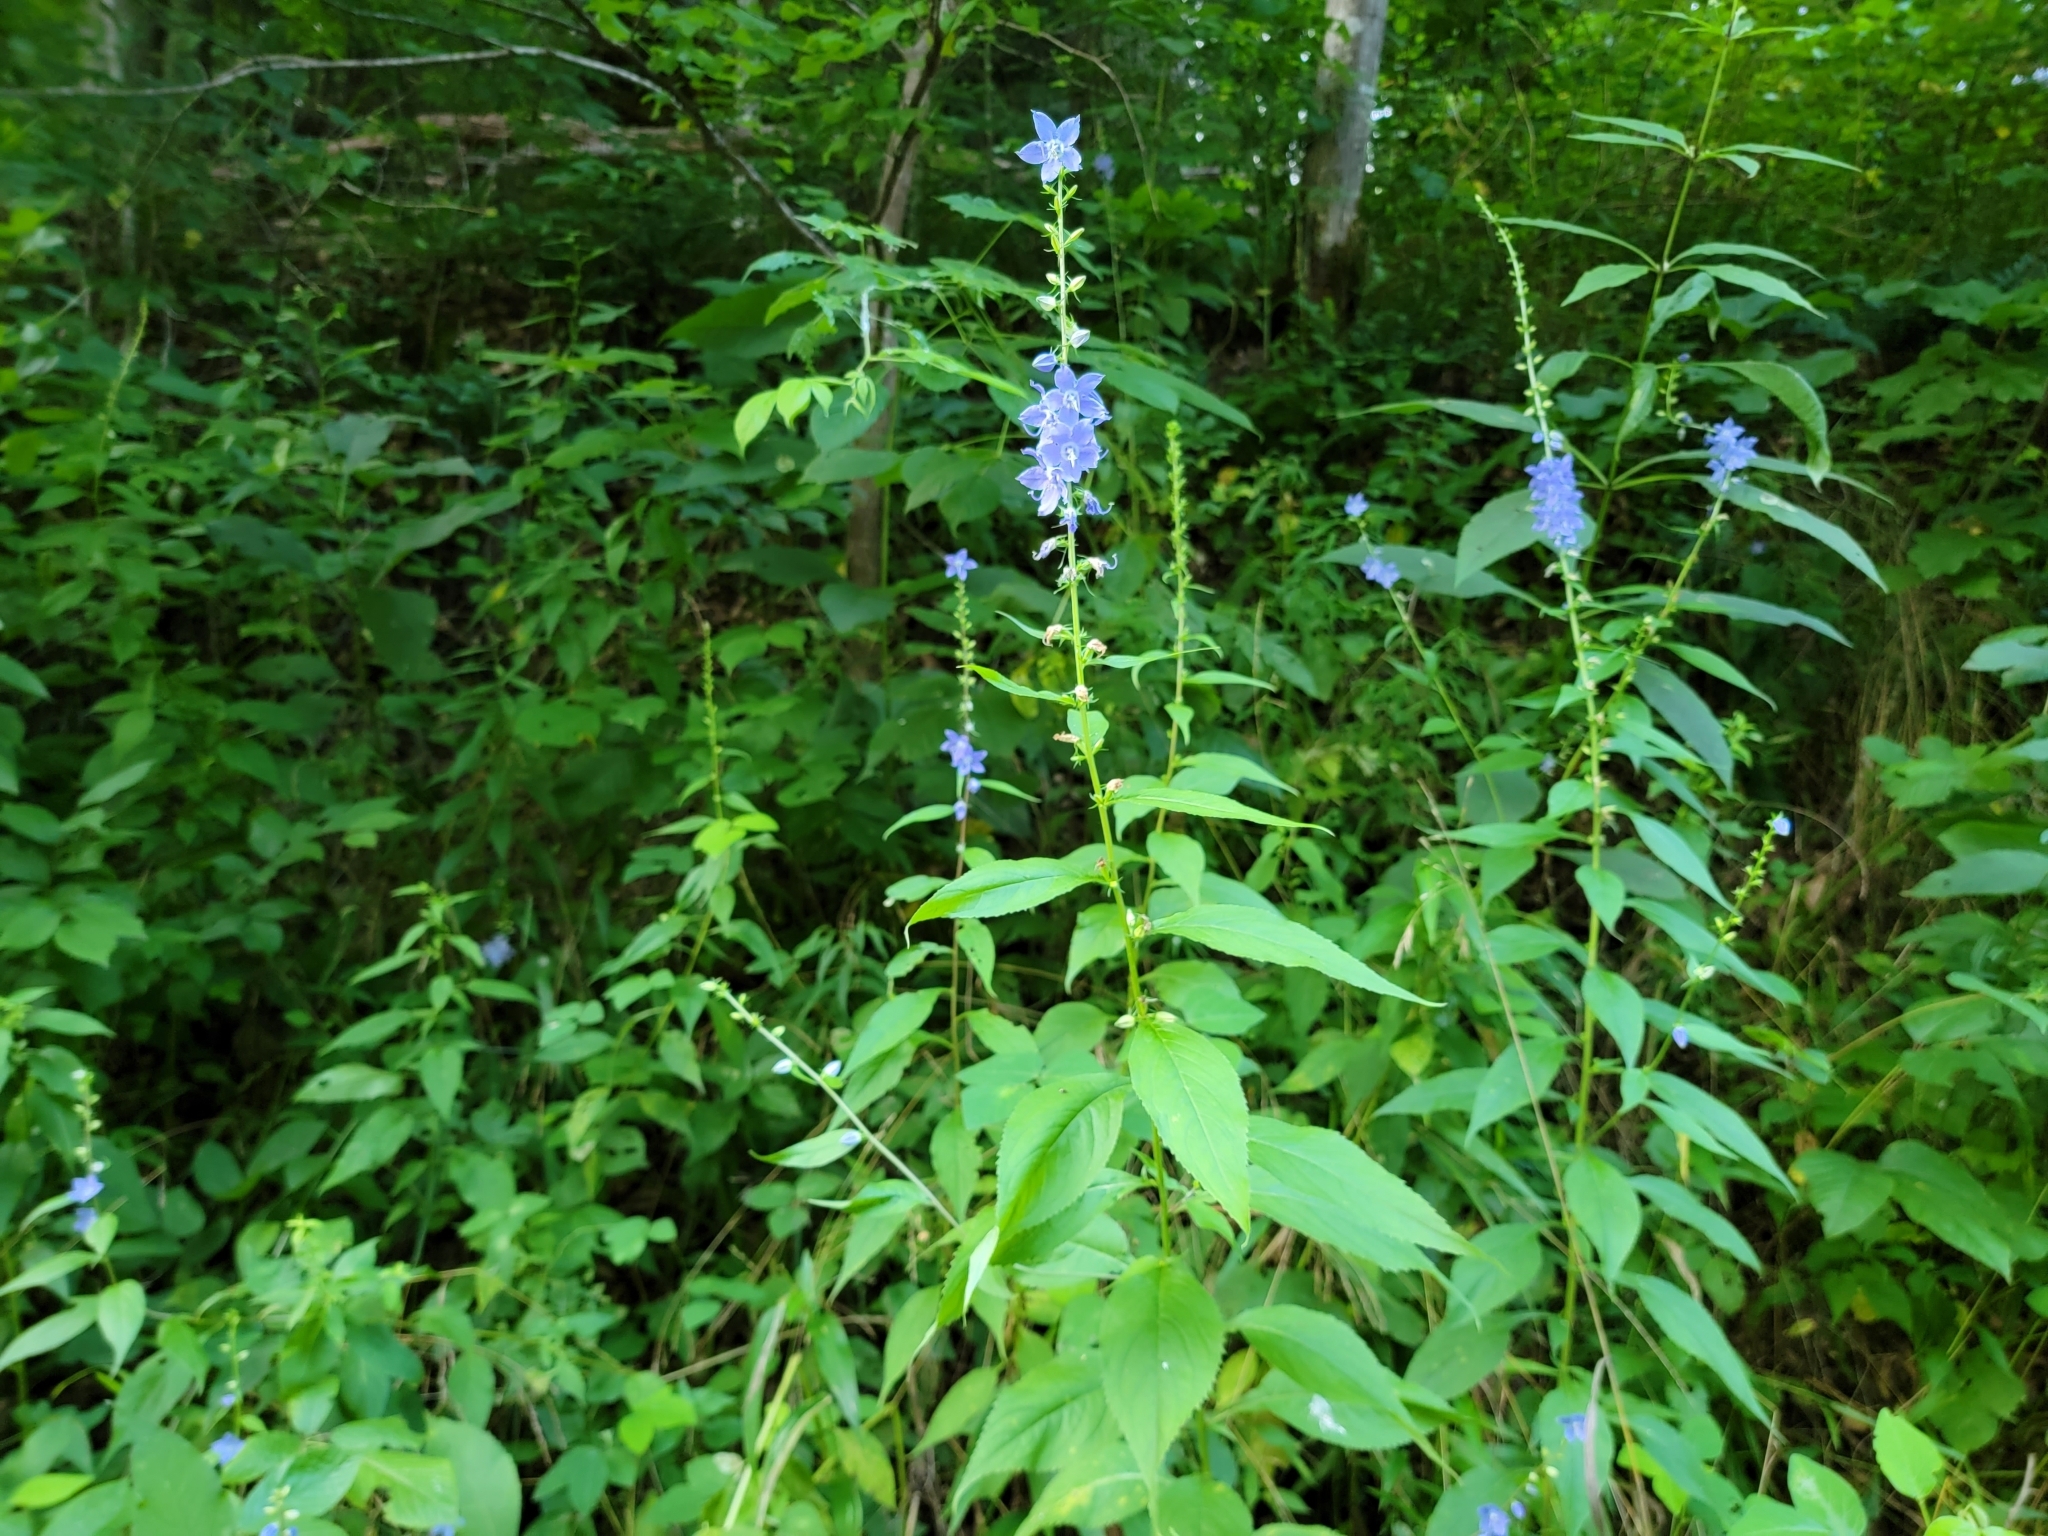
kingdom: Plantae
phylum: Tracheophyta
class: Magnoliopsida
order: Asterales
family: Campanulaceae
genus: Campanulastrum
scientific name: Campanulastrum americanum
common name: American bellflower
